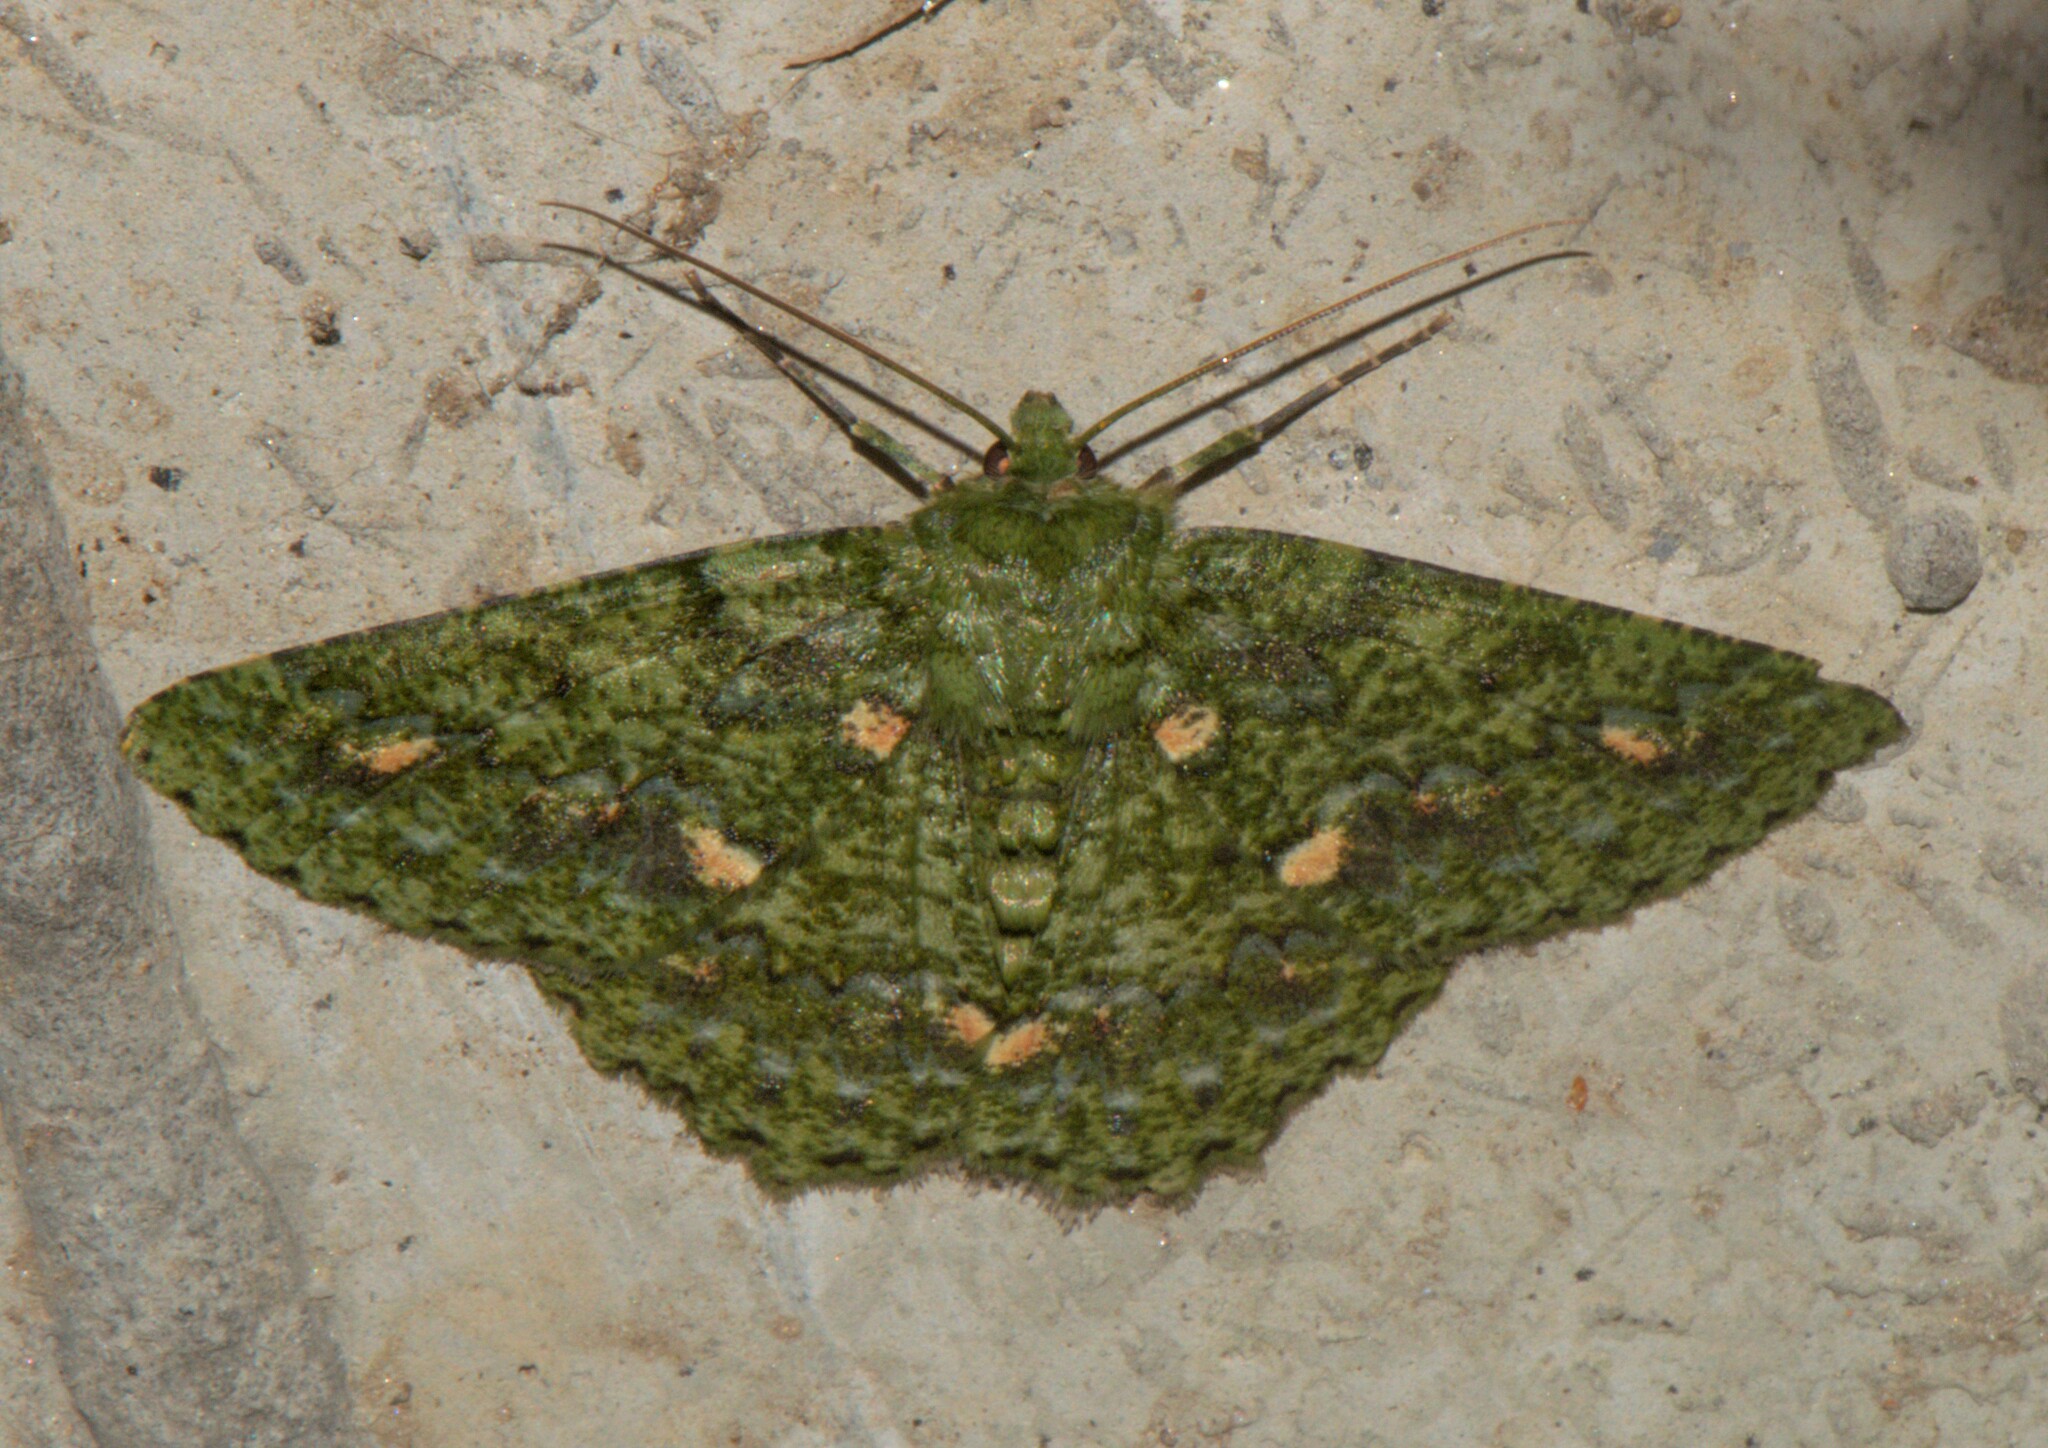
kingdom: Animalia
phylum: Arthropoda
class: Insecta
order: Lepidoptera
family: Geometridae
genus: Herochroma
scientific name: Herochroma ochreipicta
